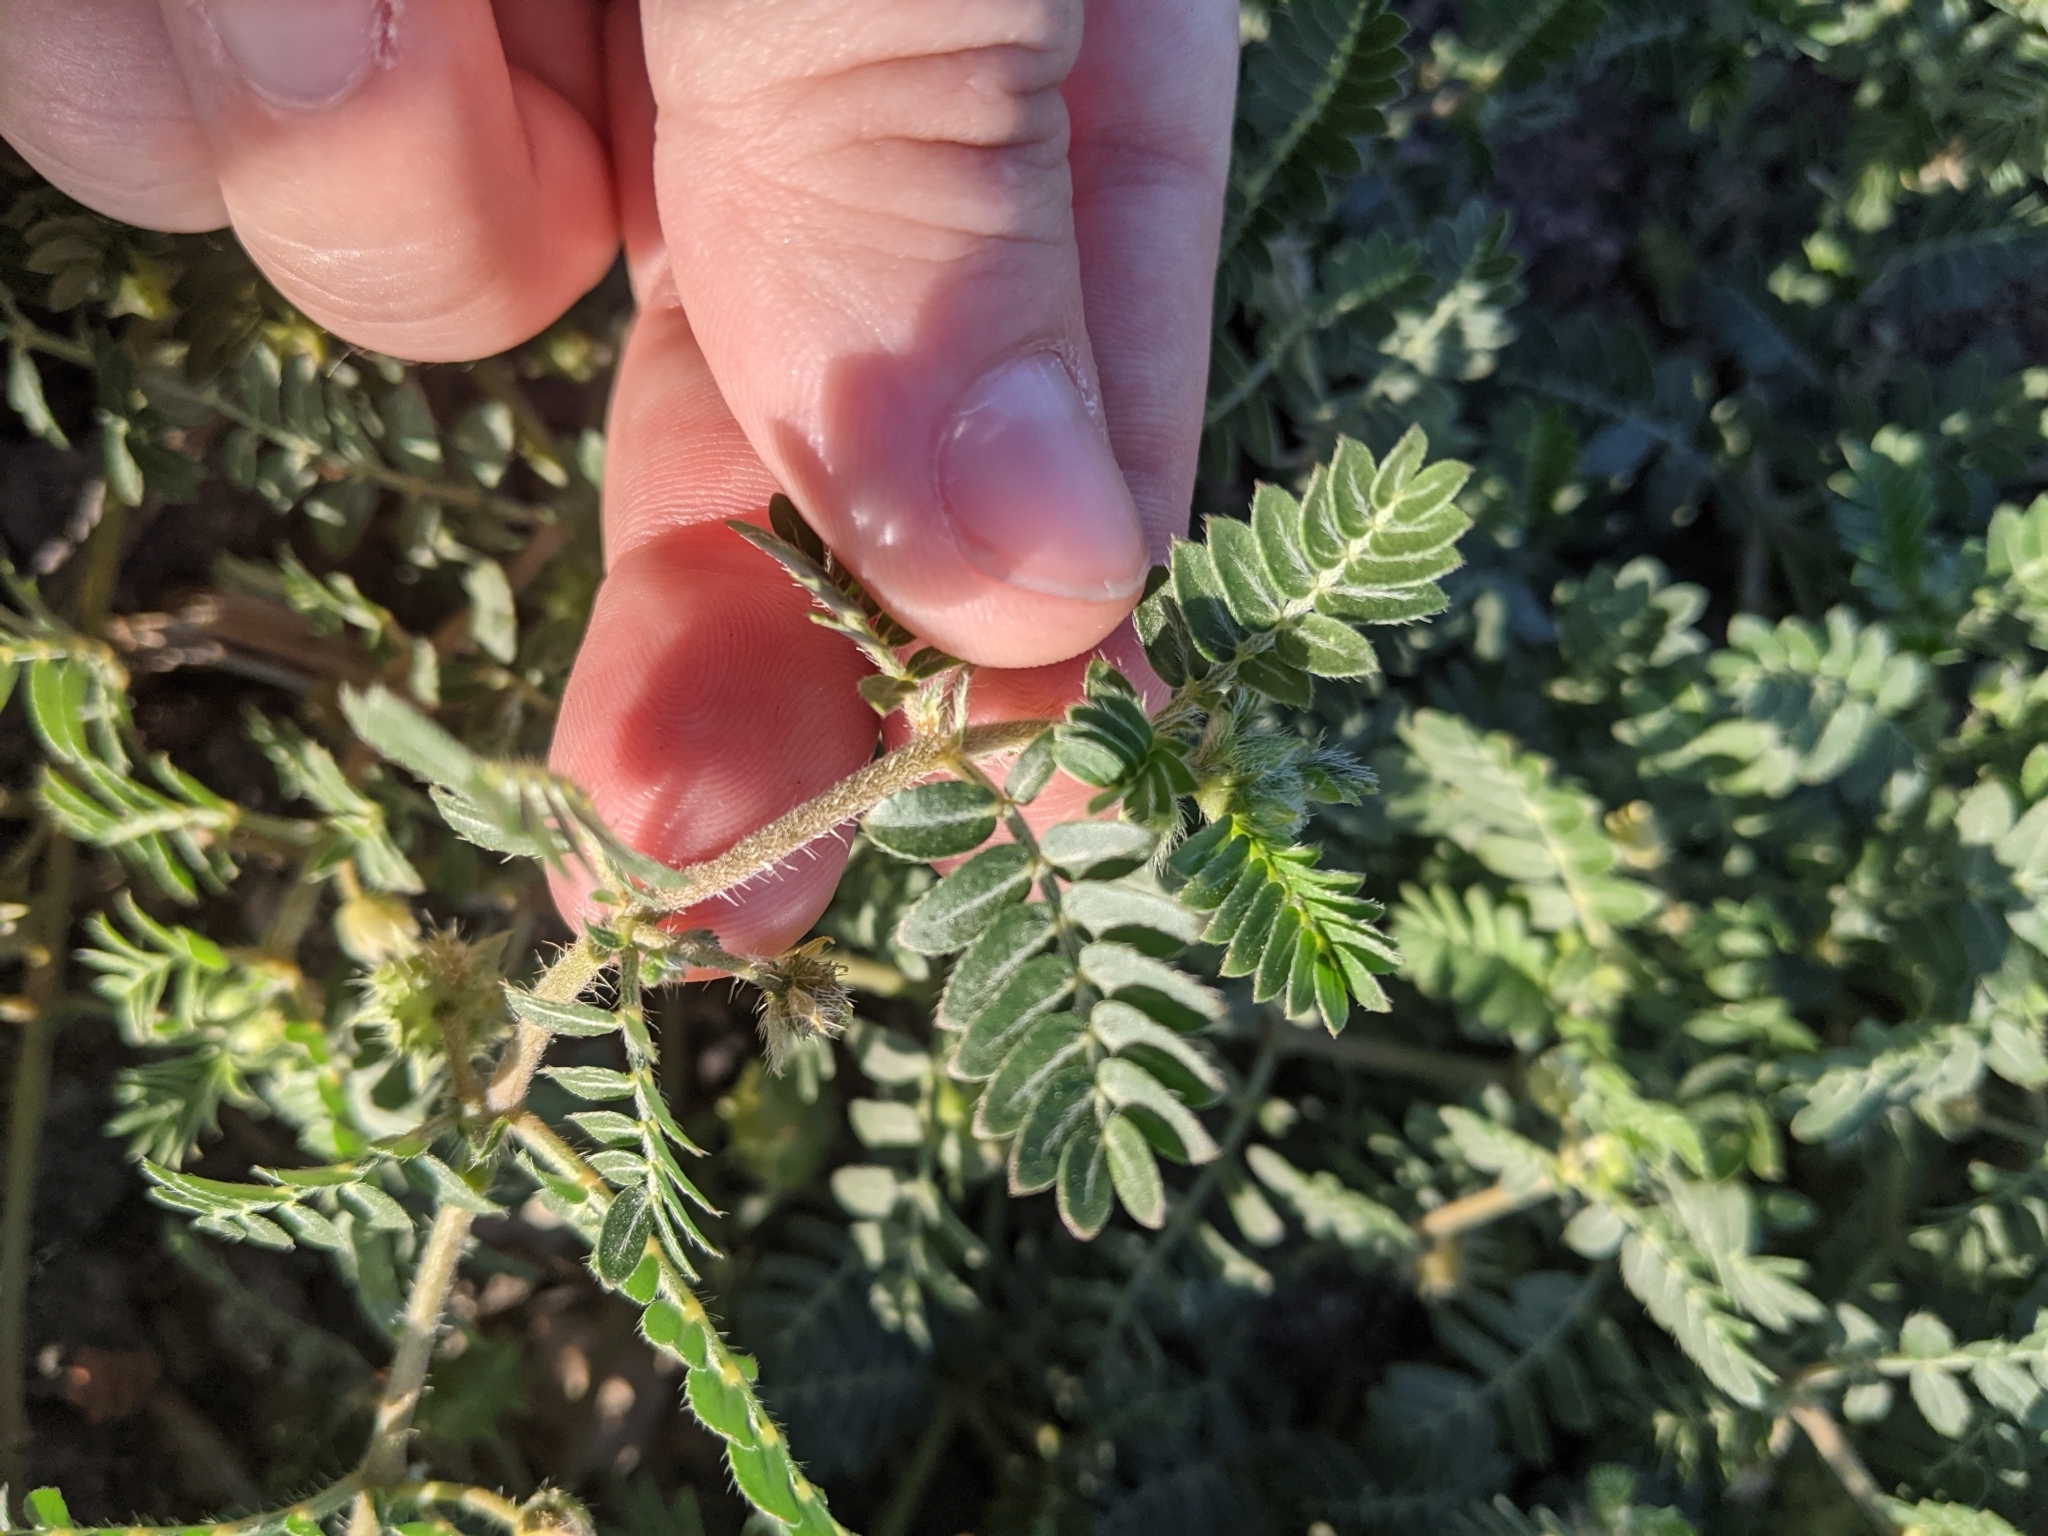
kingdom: Plantae
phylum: Tracheophyta
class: Magnoliopsida
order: Zygophyllales
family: Zygophyllaceae
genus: Tribulus
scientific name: Tribulus terrestris
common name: Puncturevine
